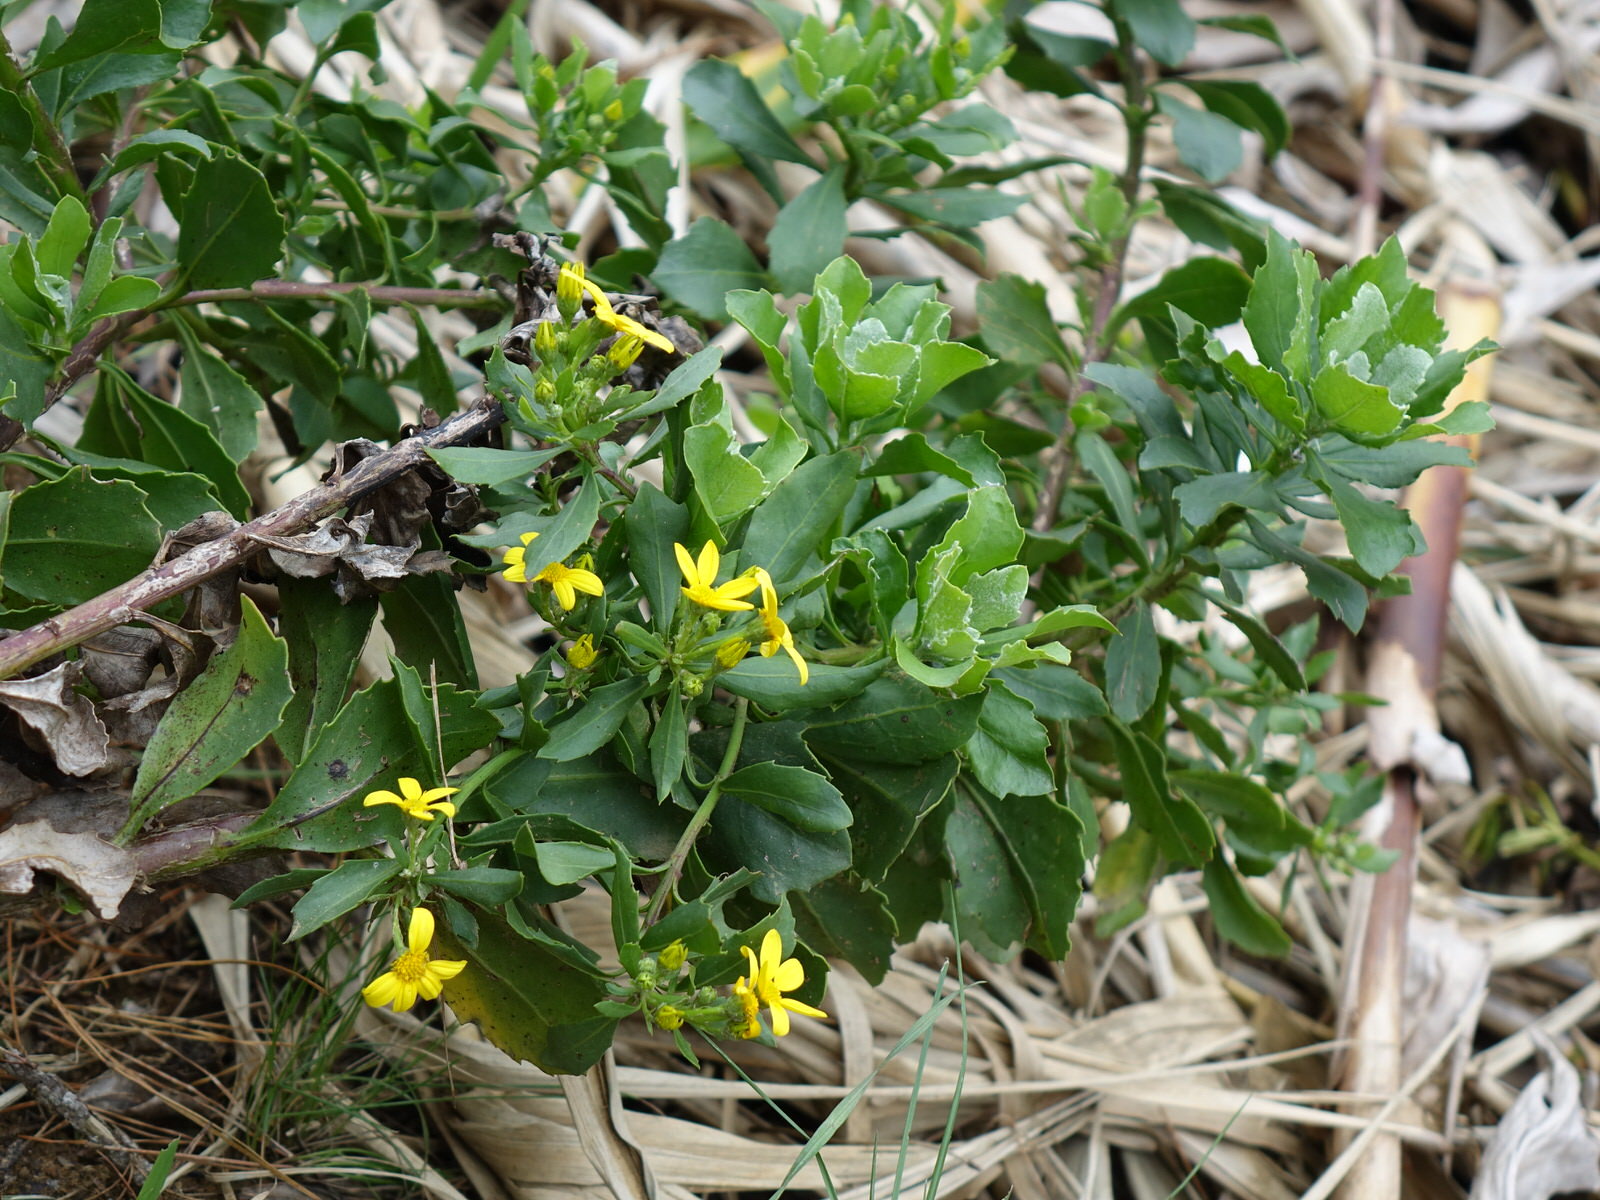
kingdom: Plantae
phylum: Tracheophyta
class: Magnoliopsida
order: Asterales
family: Asteraceae
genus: Osteospermum
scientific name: Osteospermum moniliferum
